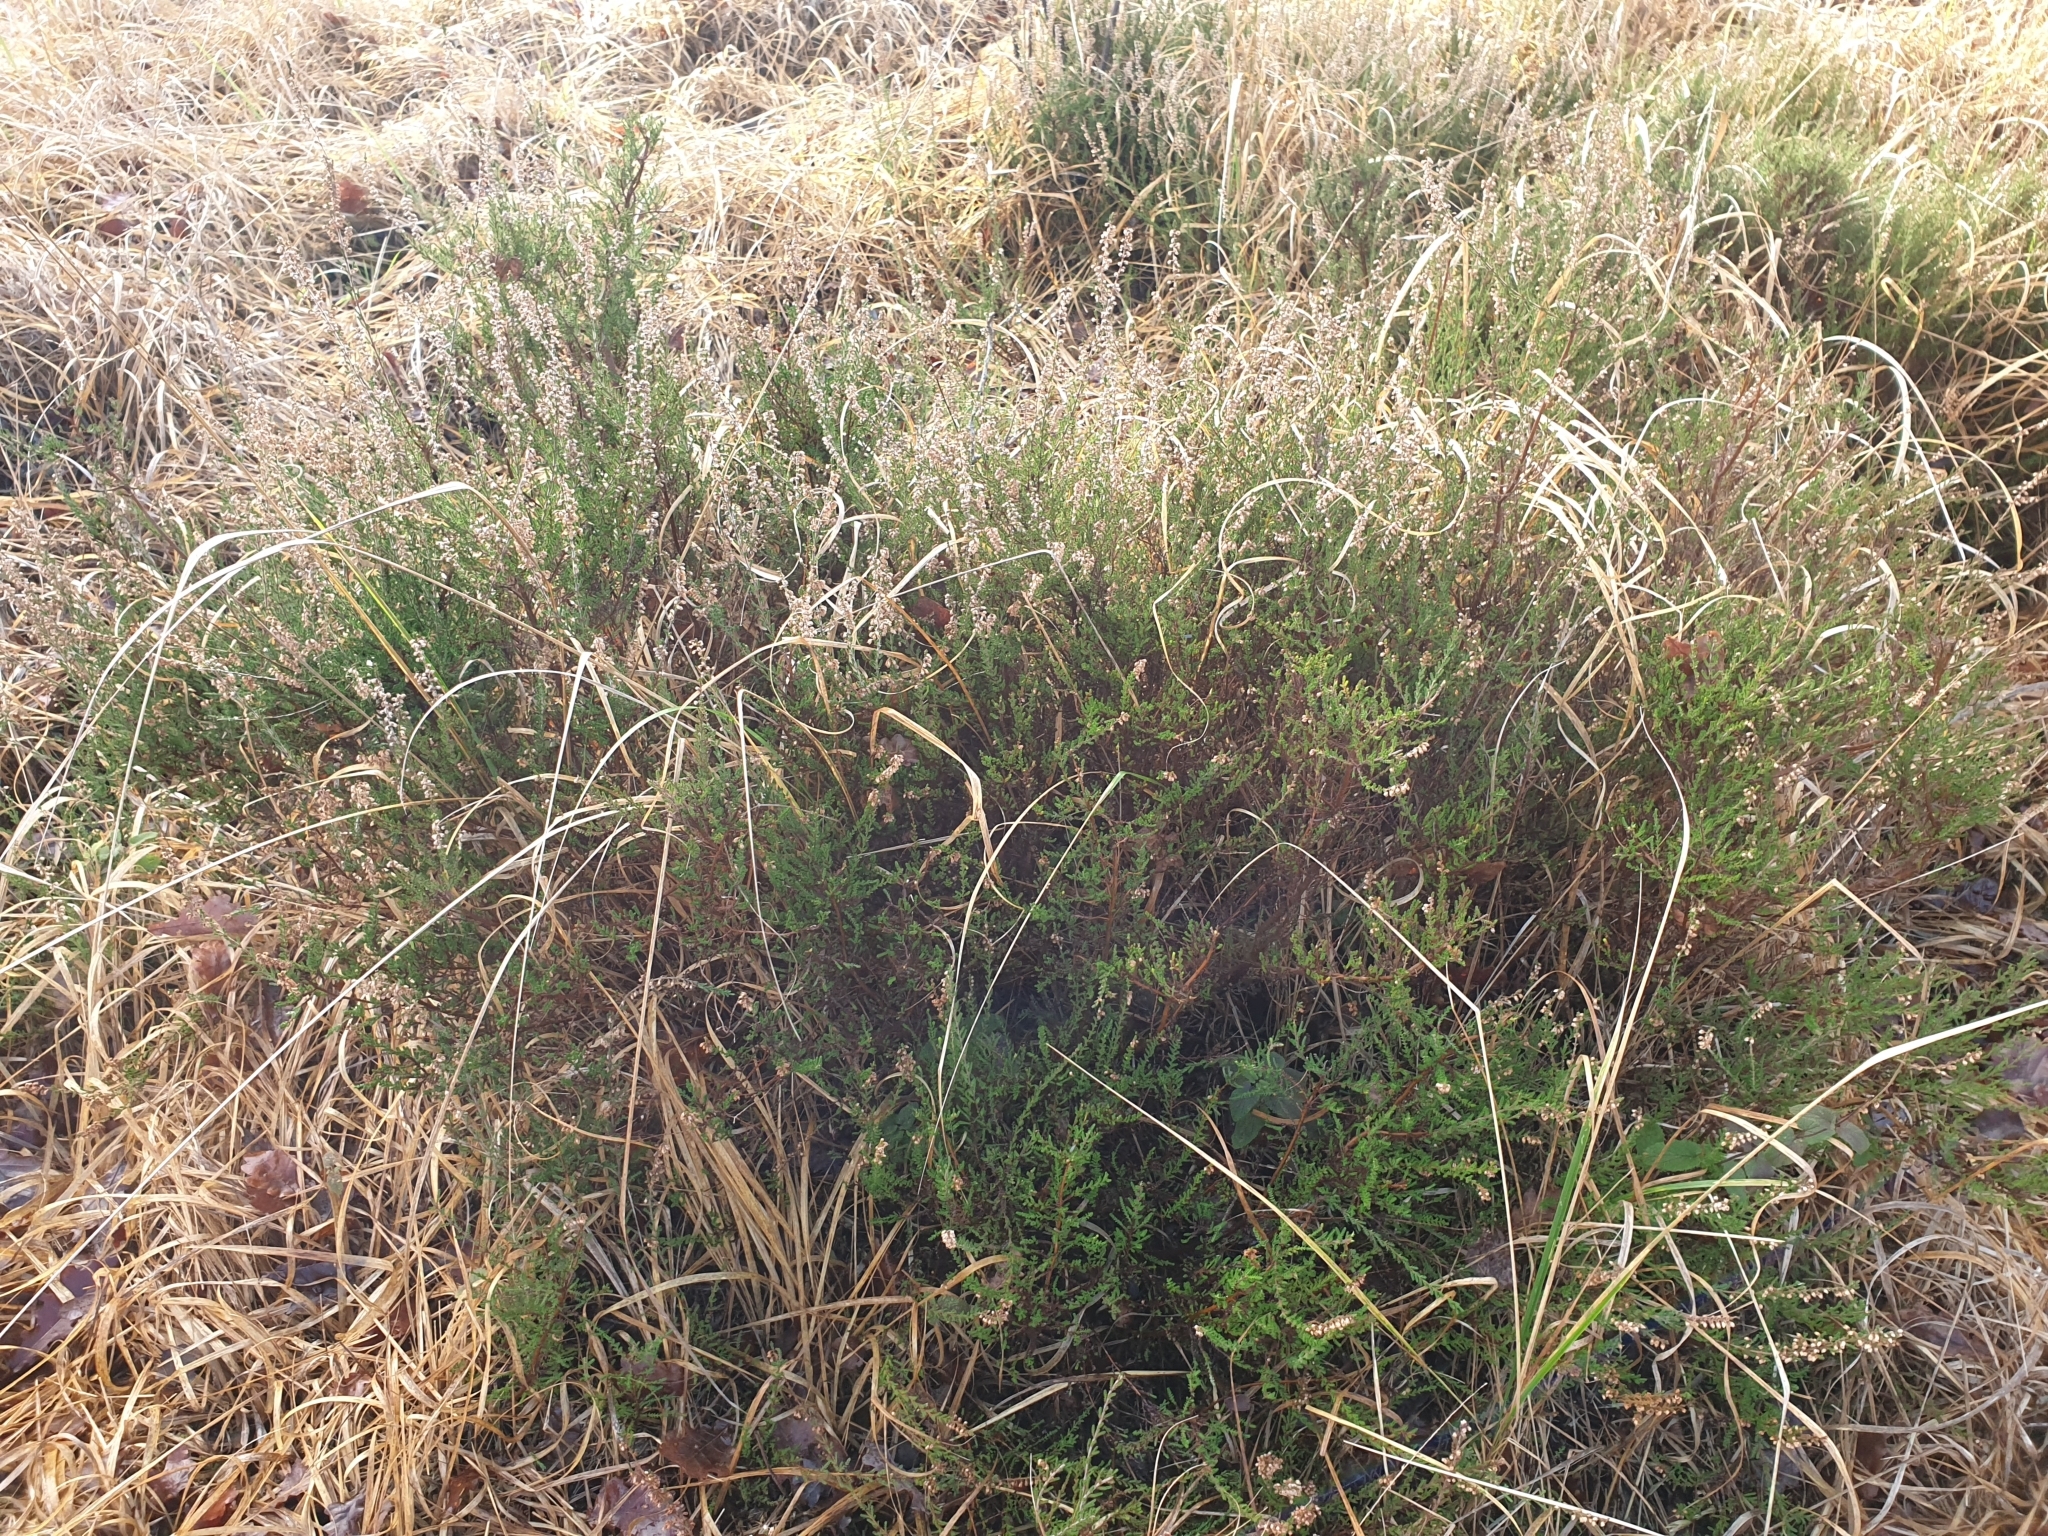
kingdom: Plantae
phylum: Tracheophyta
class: Magnoliopsida
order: Ericales
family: Ericaceae
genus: Calluna
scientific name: Calluna vulgaris
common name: Heather
